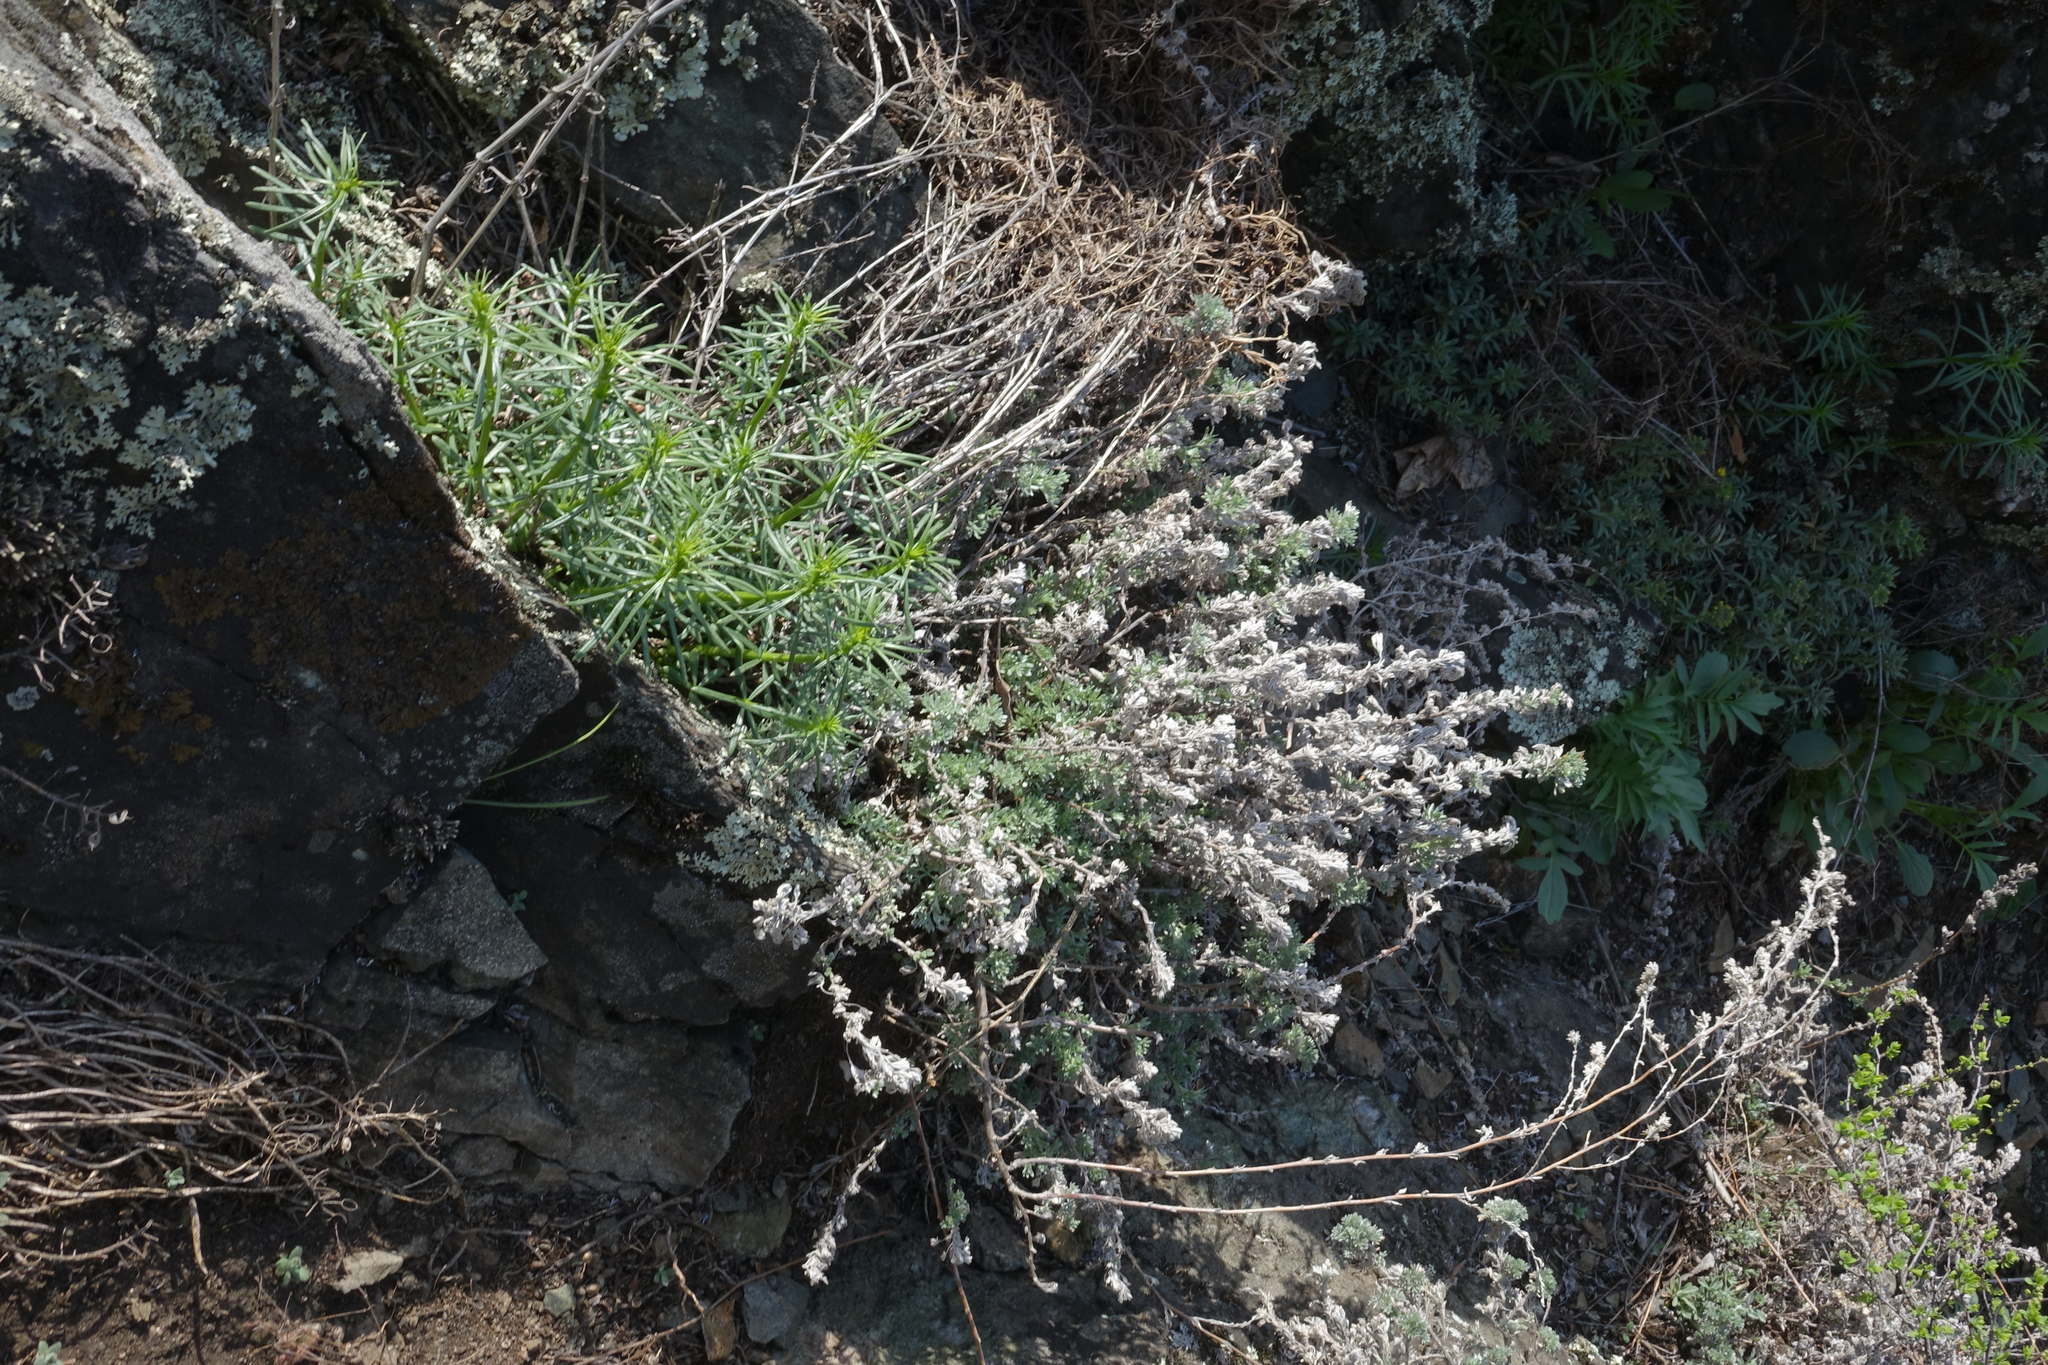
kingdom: Plantae
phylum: Tracheophyta
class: Magnoliopsida
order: Asterales
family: Asteraceae
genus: Artemisia
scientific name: Artemisia frigida
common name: Prairie sagewort
